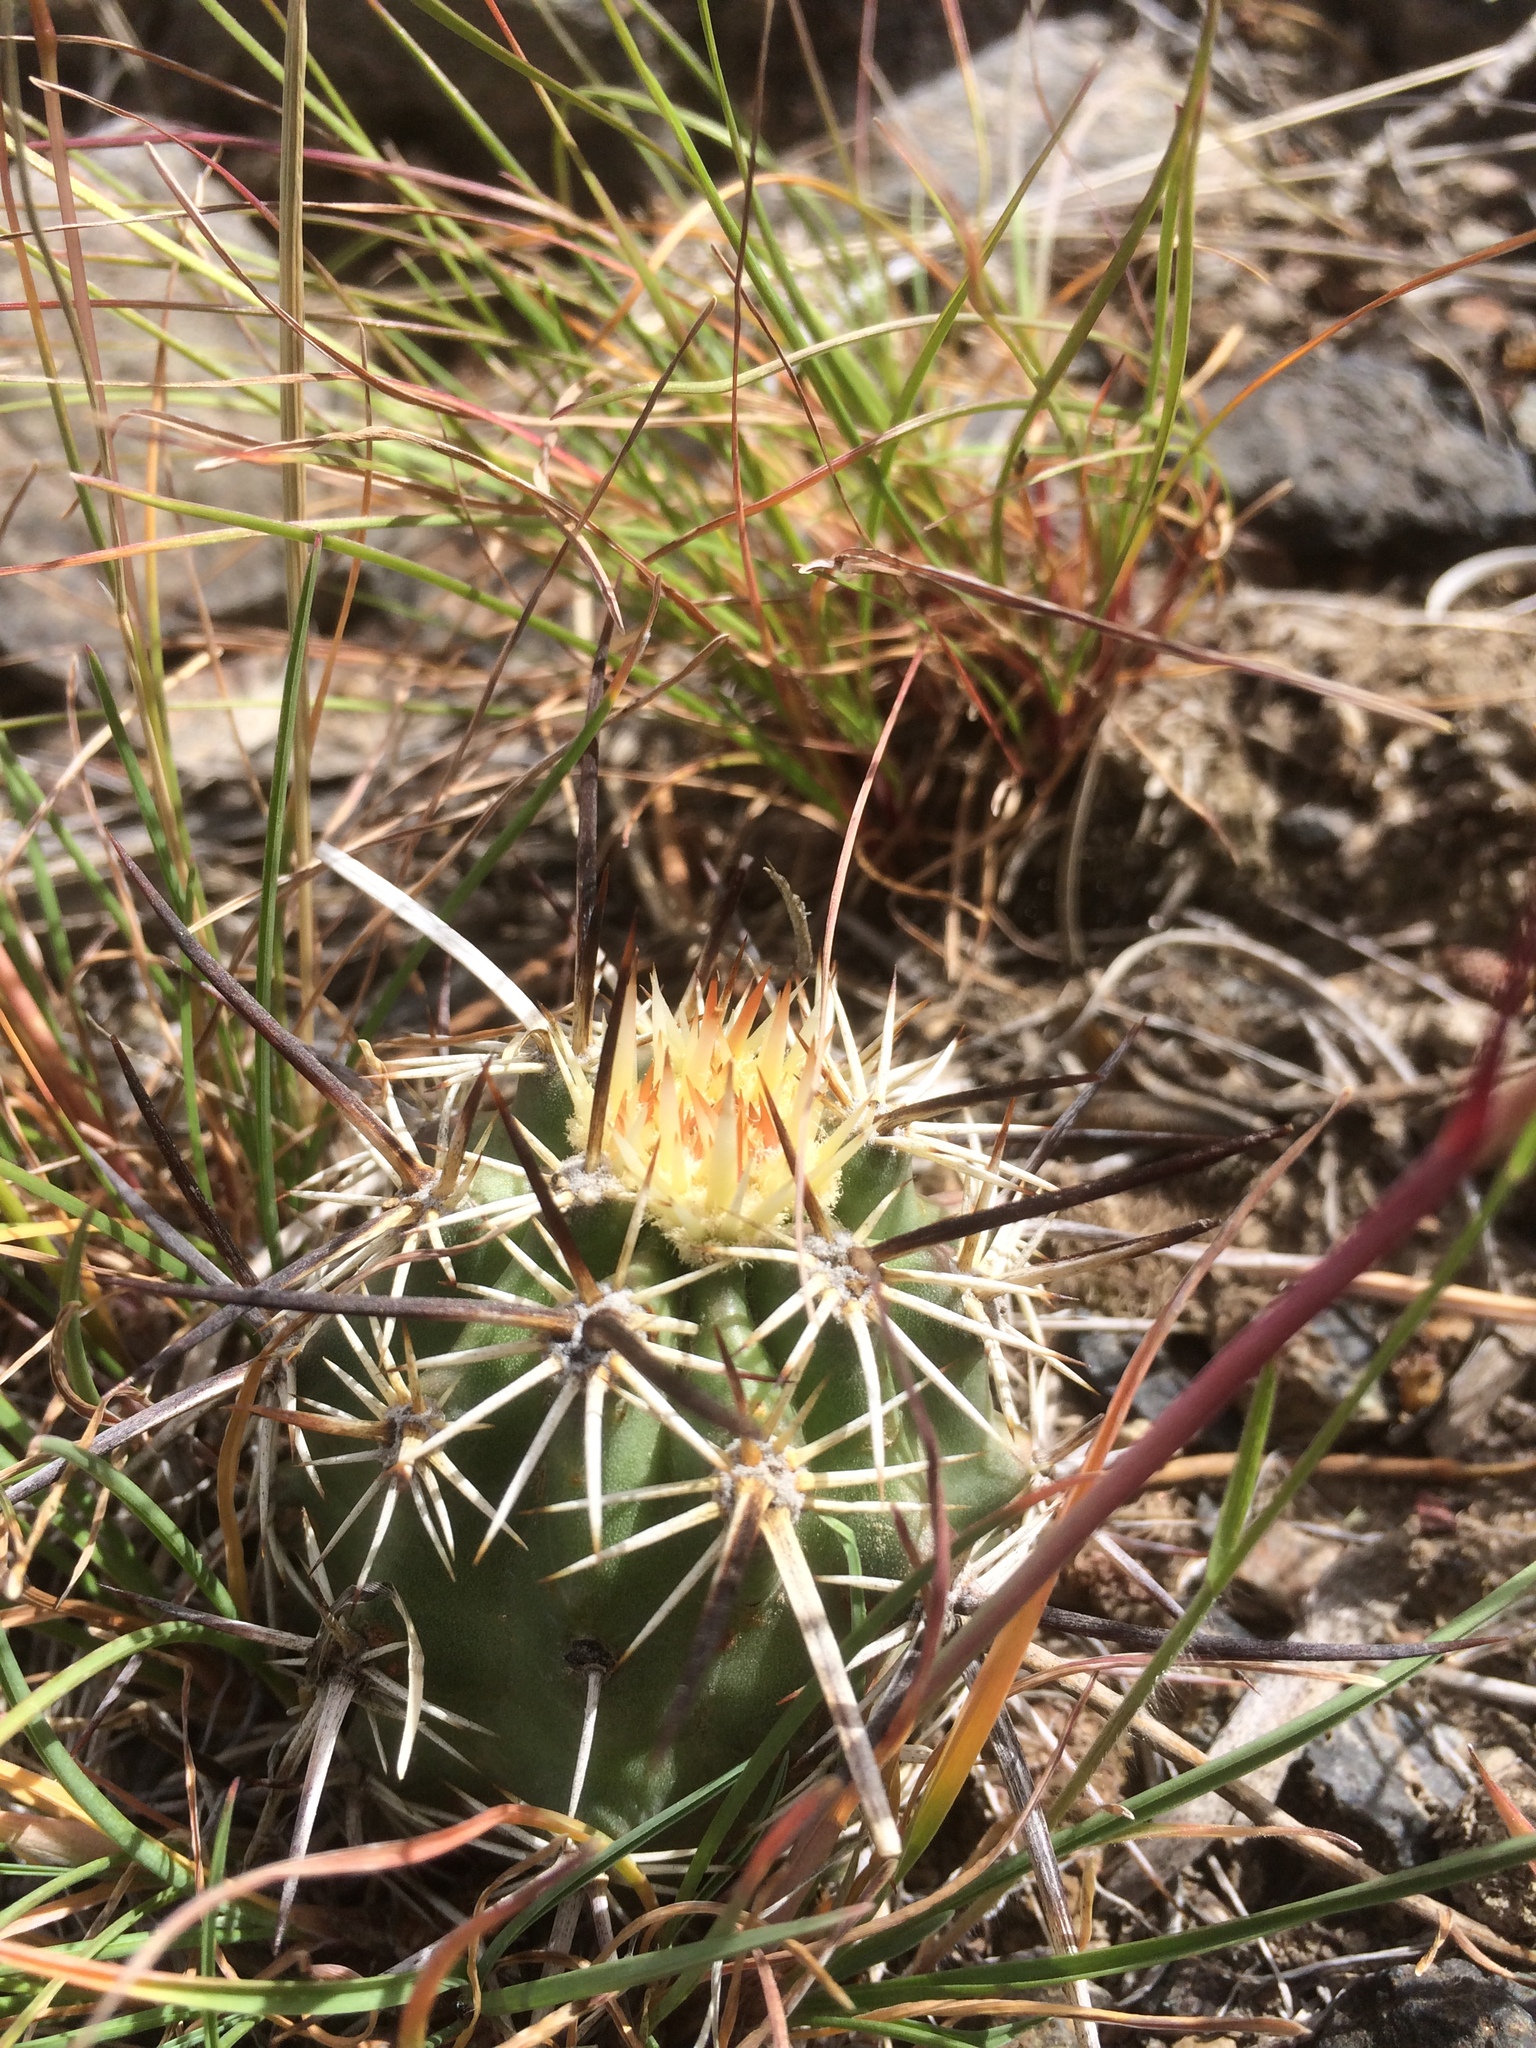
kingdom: Plantae
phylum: Tracheophyta
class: Magnoliopsida
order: Caryophyllales
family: Cactaceae
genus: Echinocereus
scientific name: Echinocereus engelmannii
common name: Engelmann's hedgehog cactus
